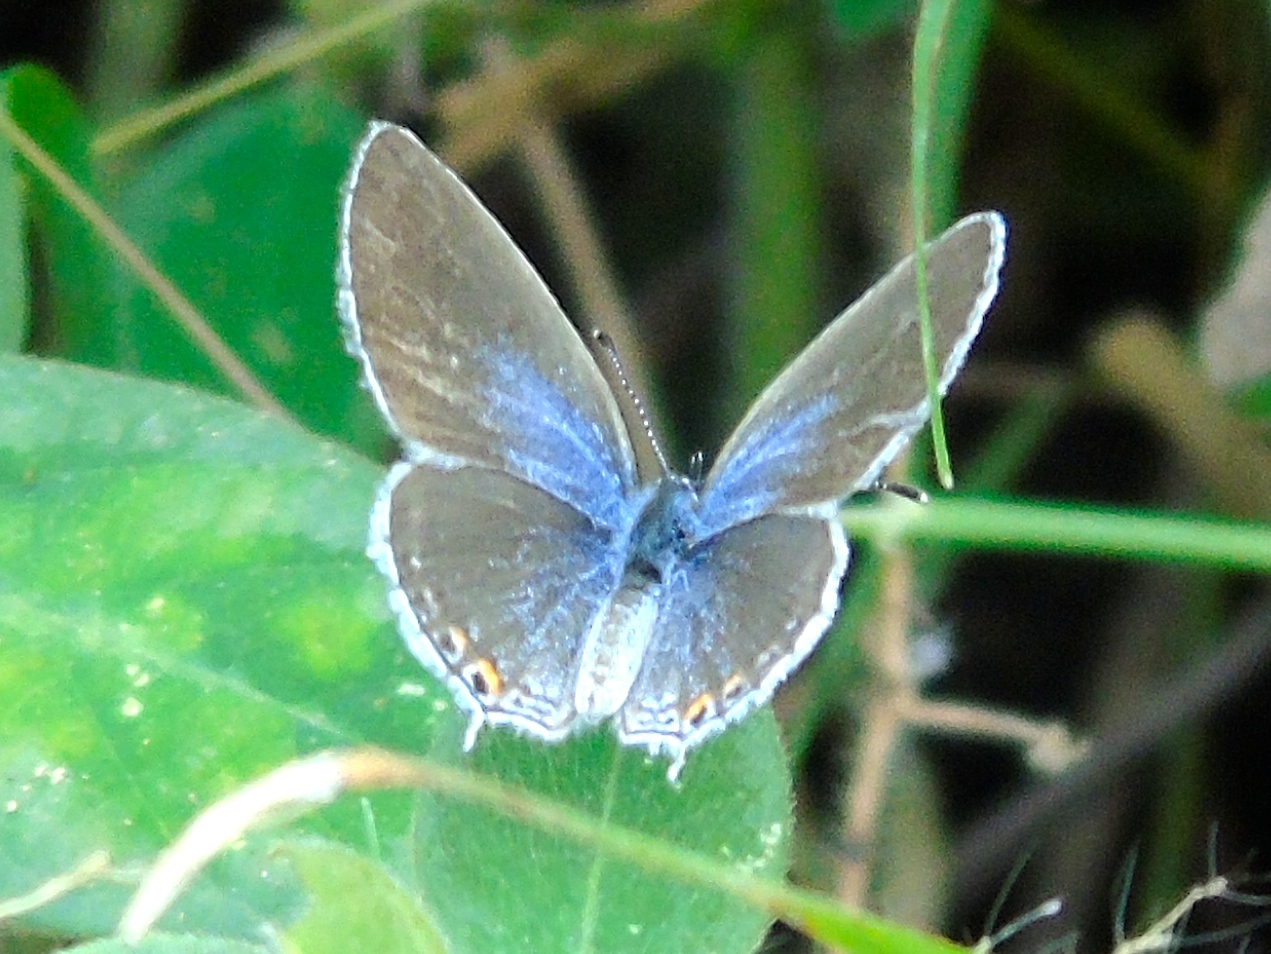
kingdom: Animalia
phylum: Arthropoda
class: Insecta
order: Lepidoptera
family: Lycaenidae
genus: Elkalyce
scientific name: Elkalyce comyntas
